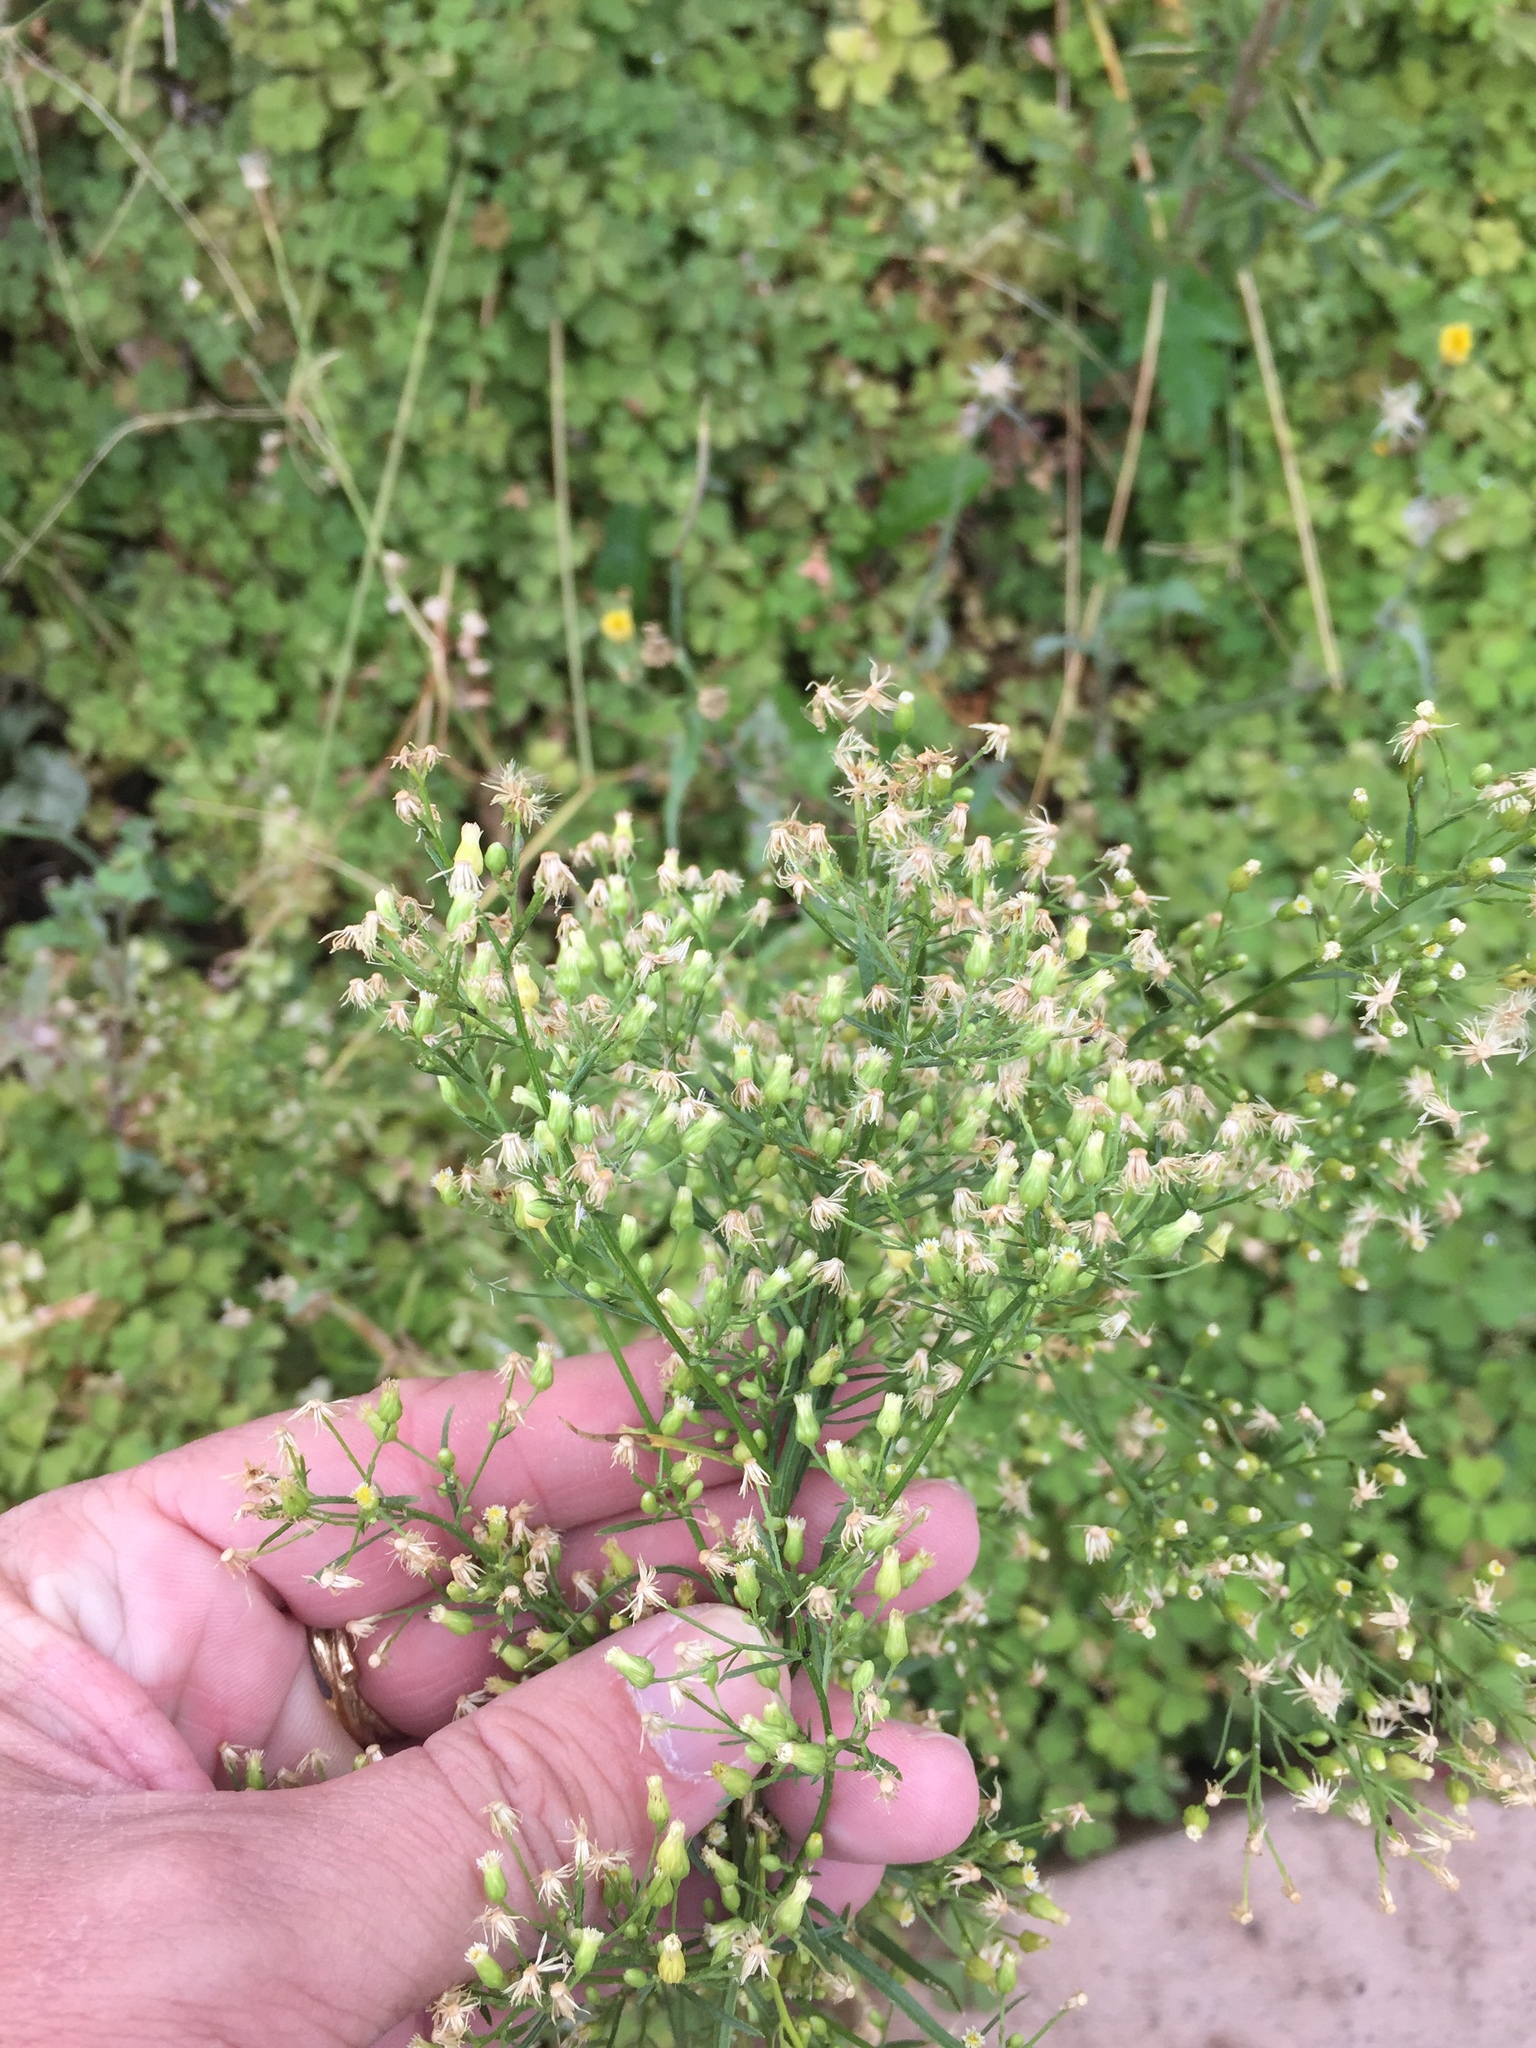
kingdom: Plantae
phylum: Tracheophyta
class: Magnoliopsida
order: Asterales
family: Asteraceae
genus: Erigeron
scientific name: Erigeron canadensis
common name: Canadian fleabane
